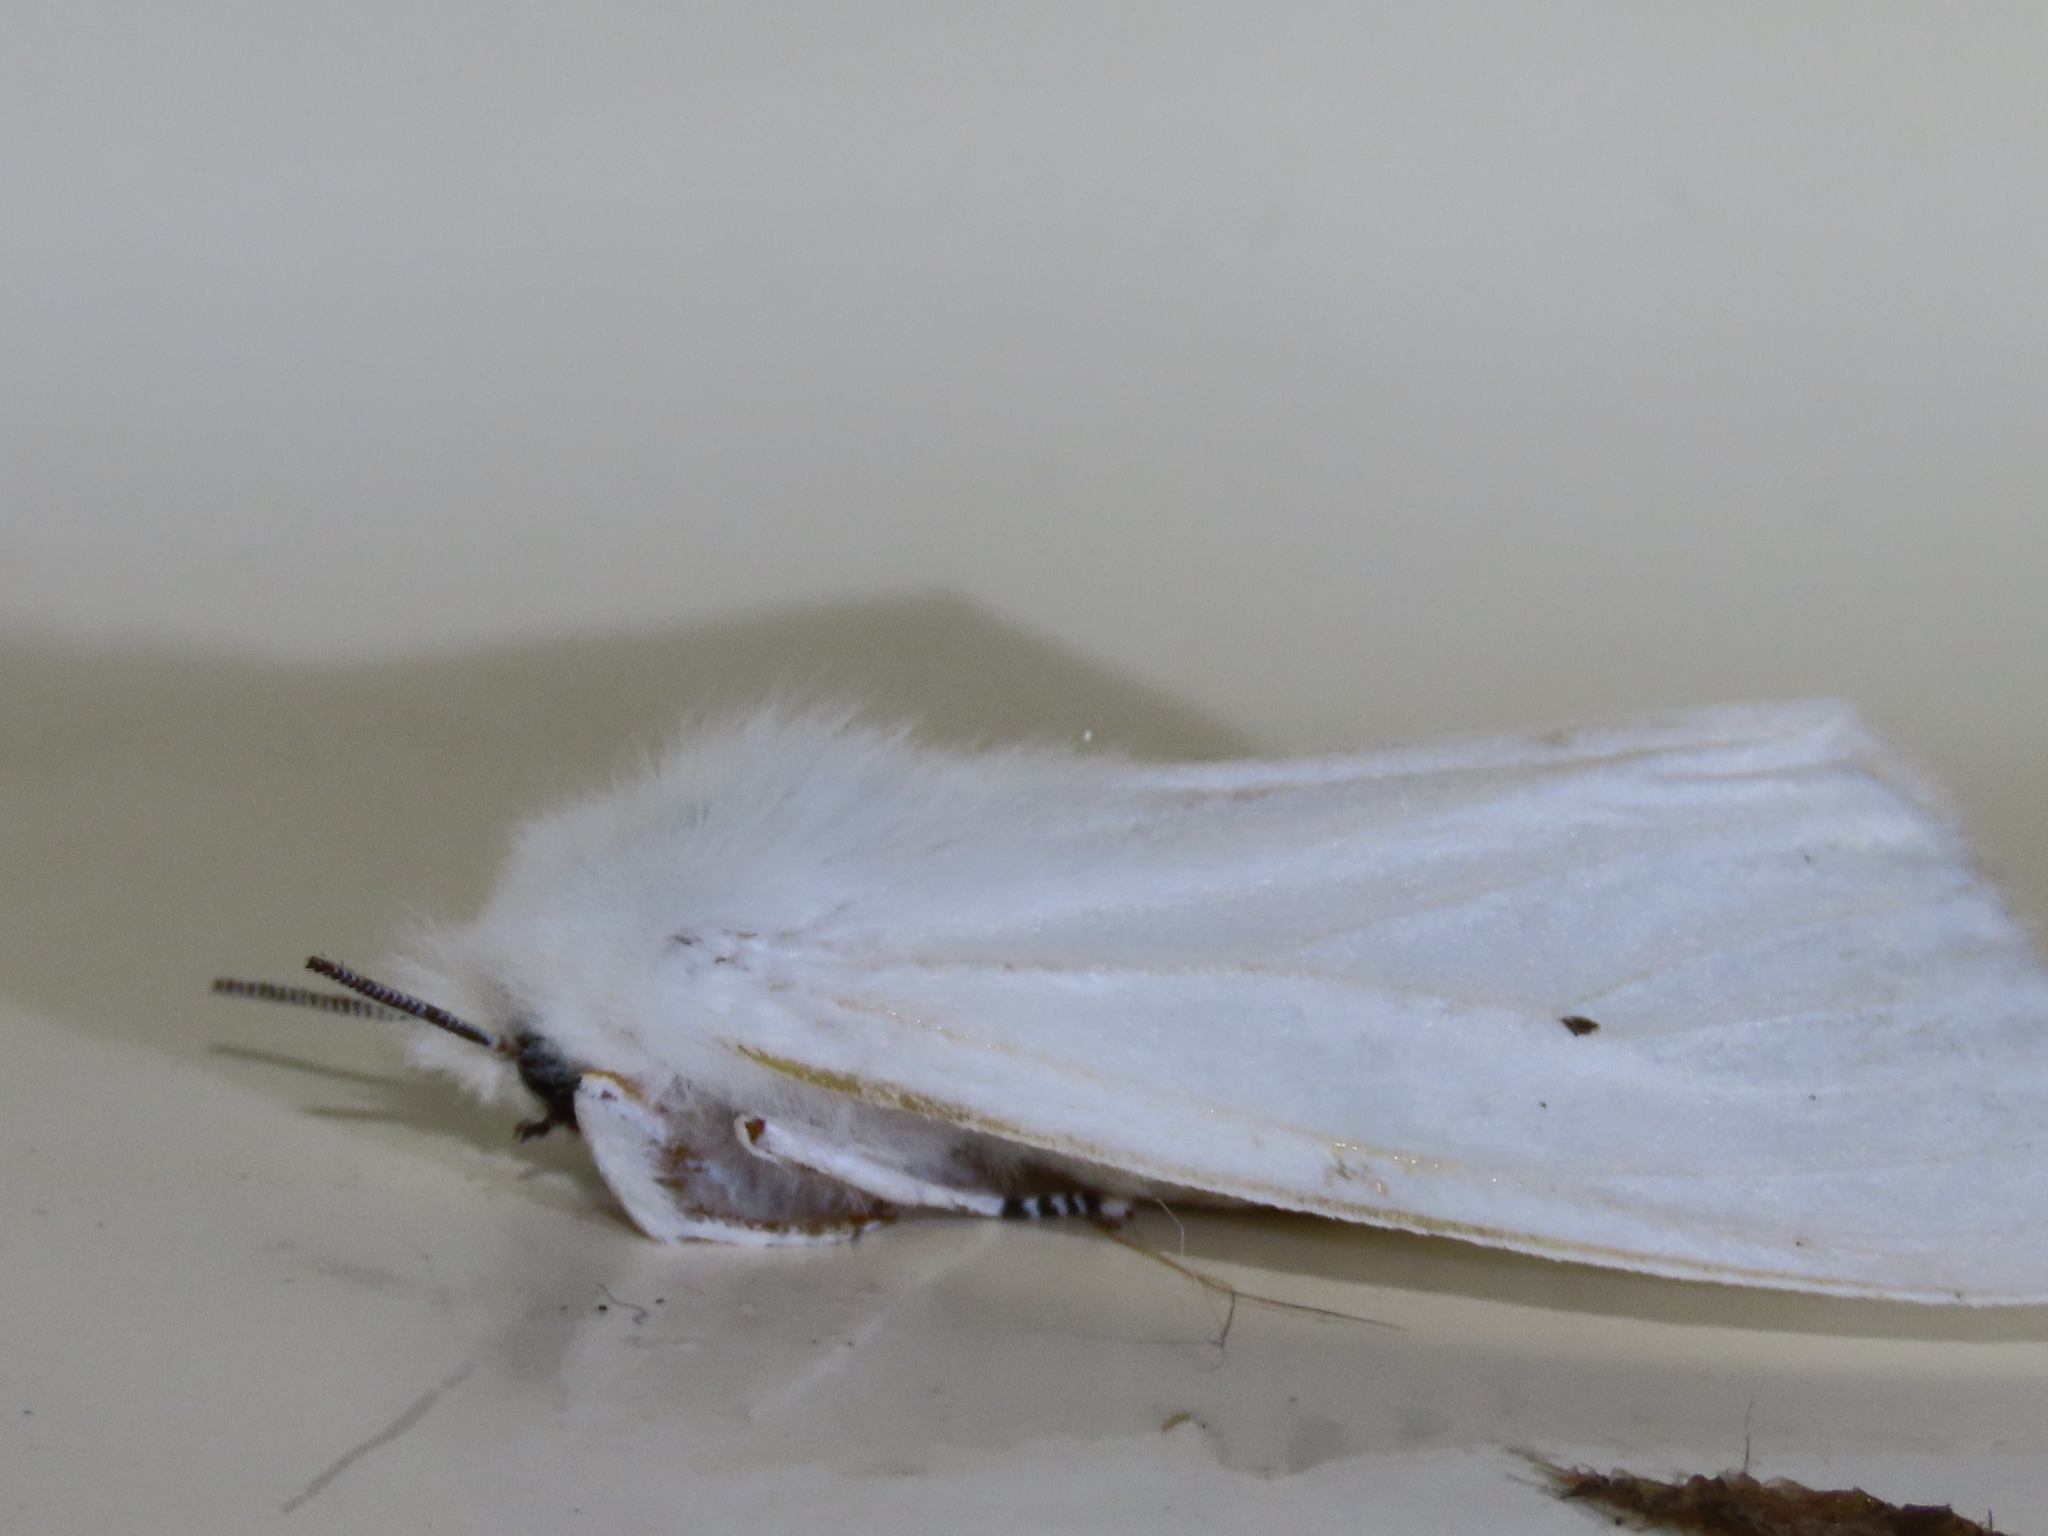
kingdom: Animalia
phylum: Arthropoda
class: Insecta
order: Lepidoptera
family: Erebidae
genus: Spilosoma
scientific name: Spilosoma virginica
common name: Virginia tiger moth
